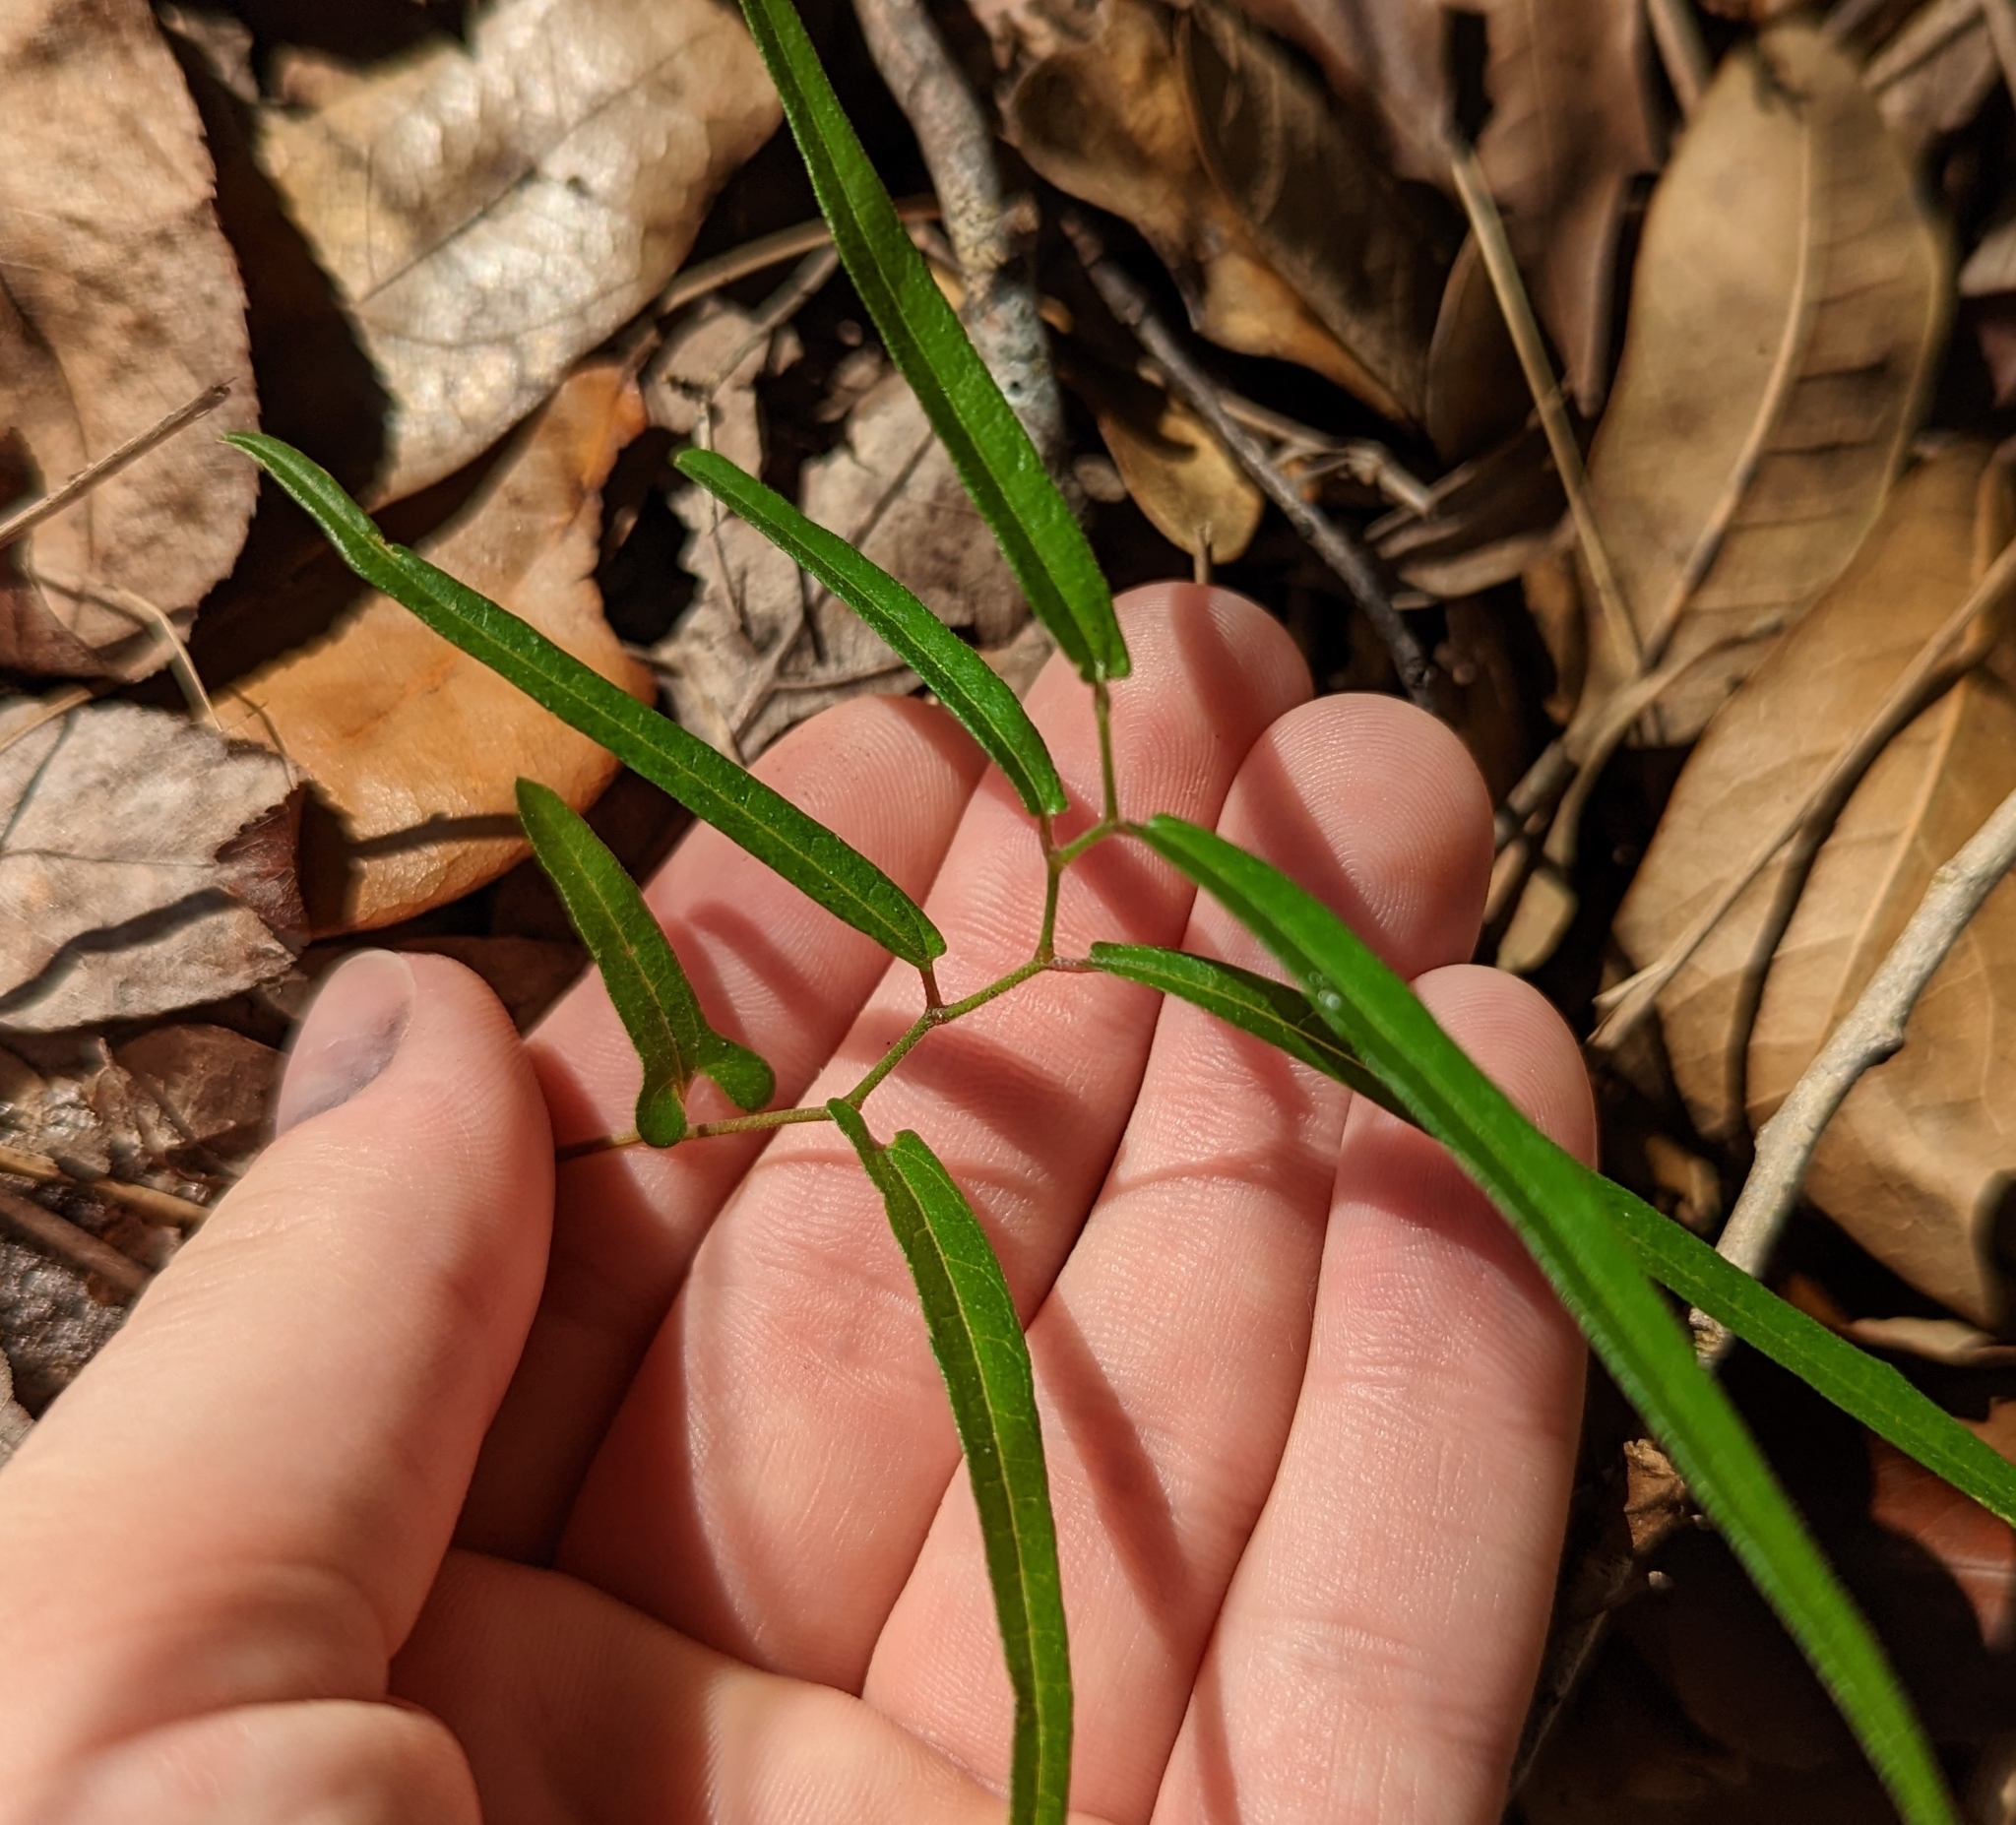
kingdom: Plantae
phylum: Tracheophyta
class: Magnoliopsida
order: Piperales
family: Aristolochiaceae
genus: Endodeca
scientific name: Endodeca serpentaria
